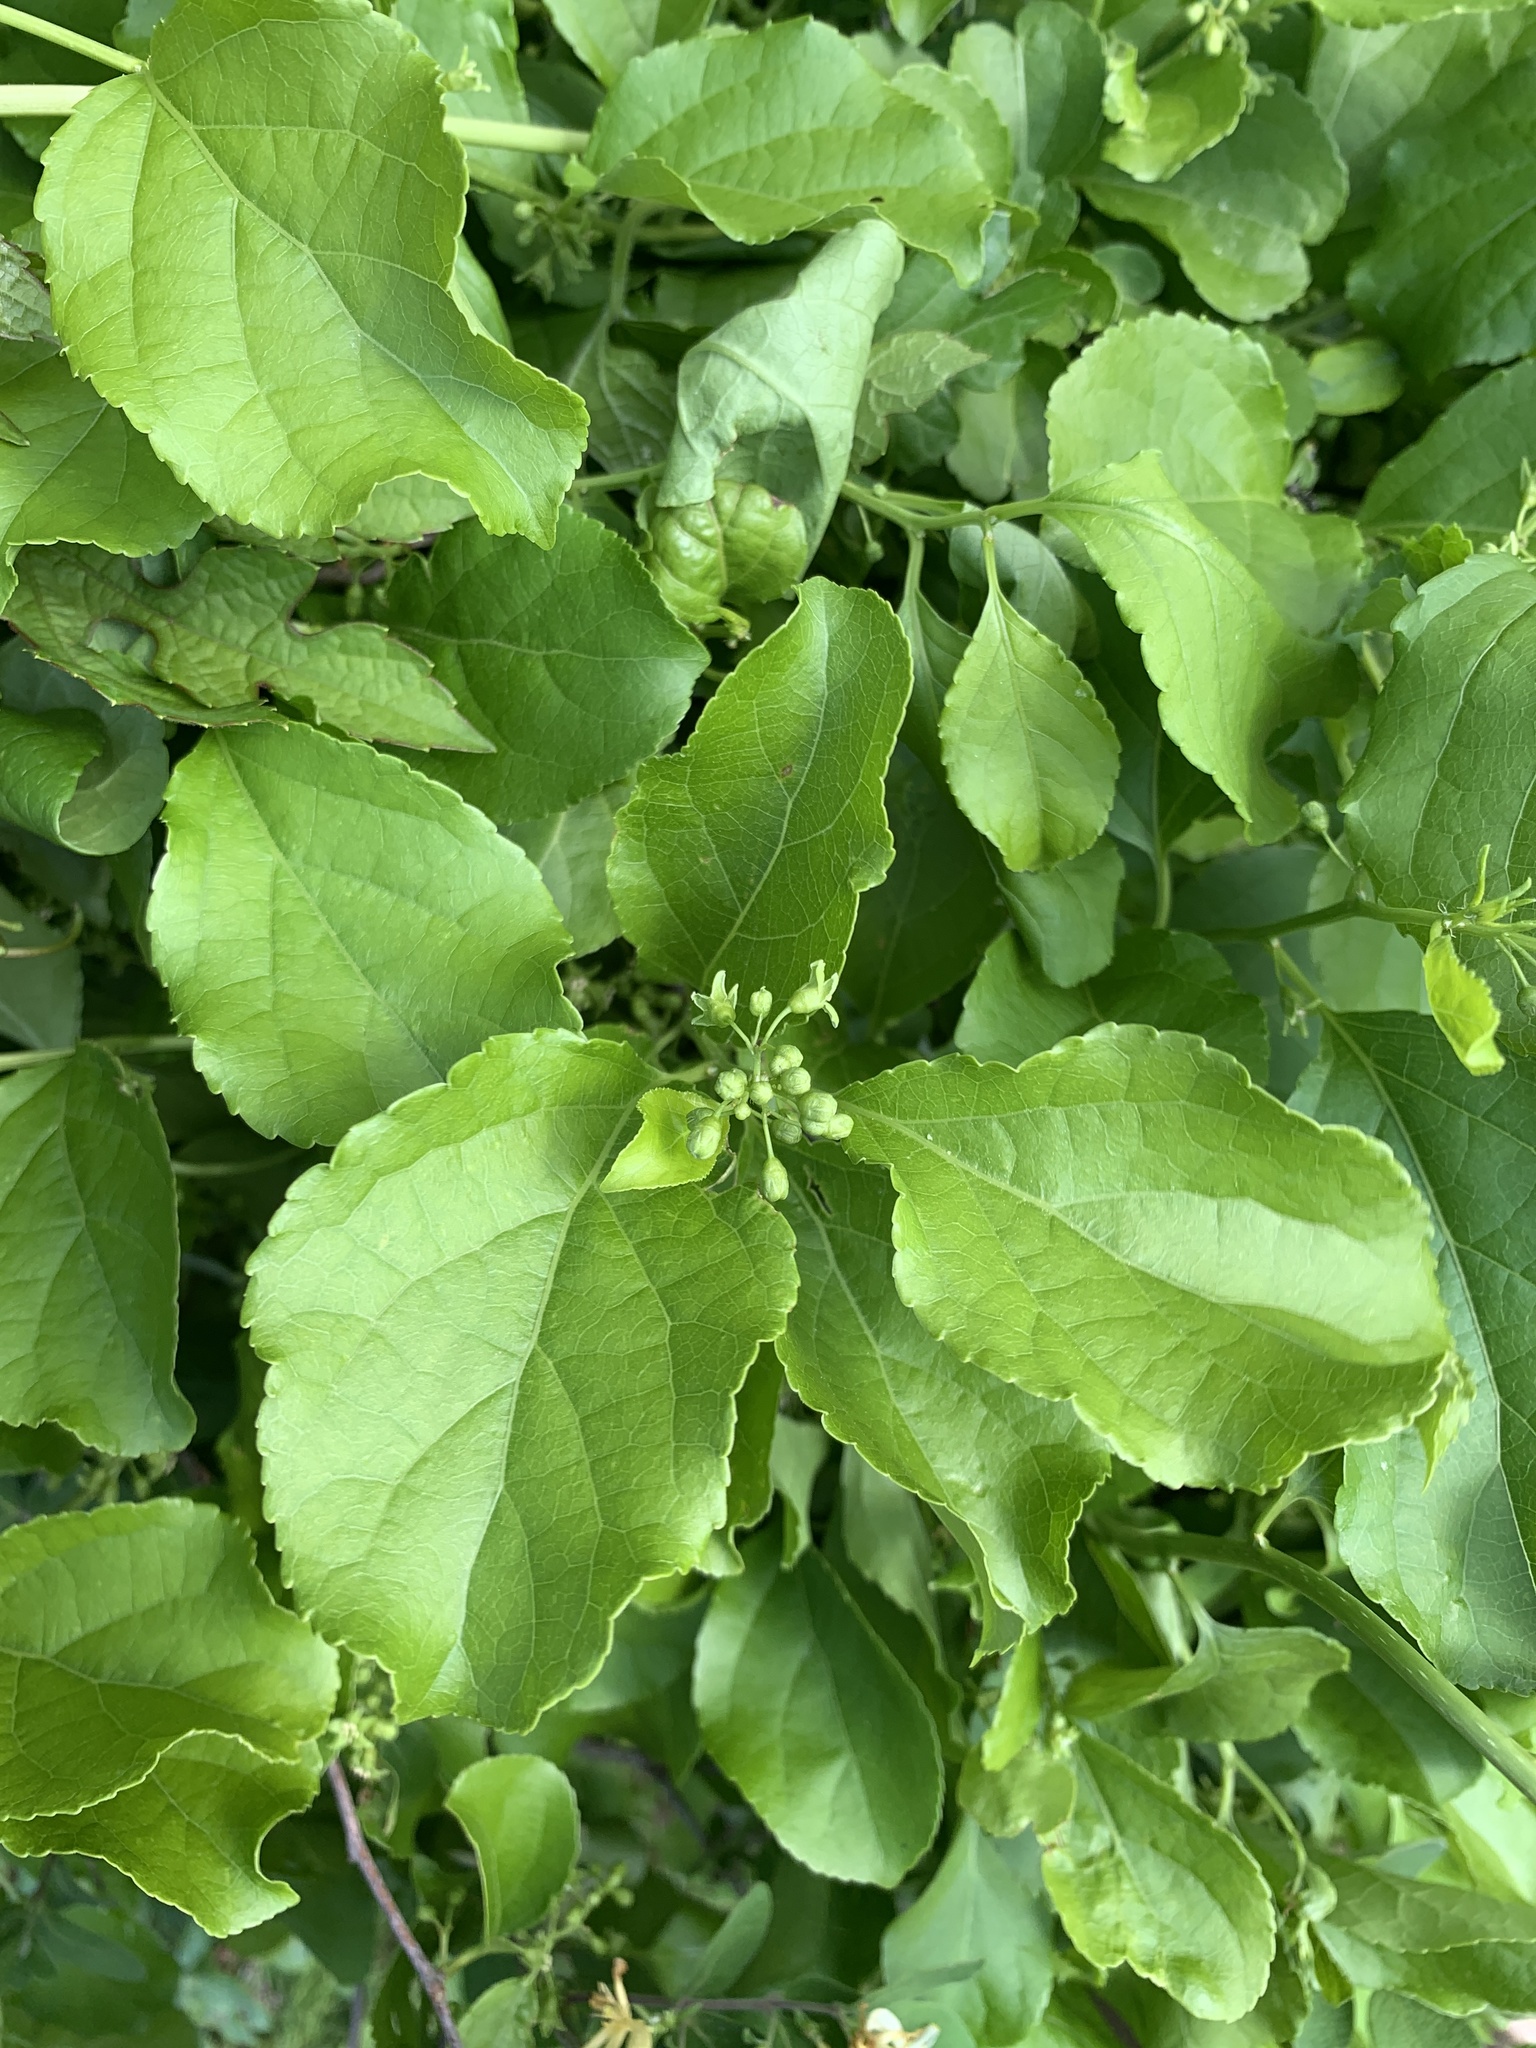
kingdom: Plantae
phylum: Tracheophyta
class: Magnoliopsida
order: Celastrales
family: Celastraceae
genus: Celastrus
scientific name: Celastrus orbiculatus
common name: Oriental bittersweet
